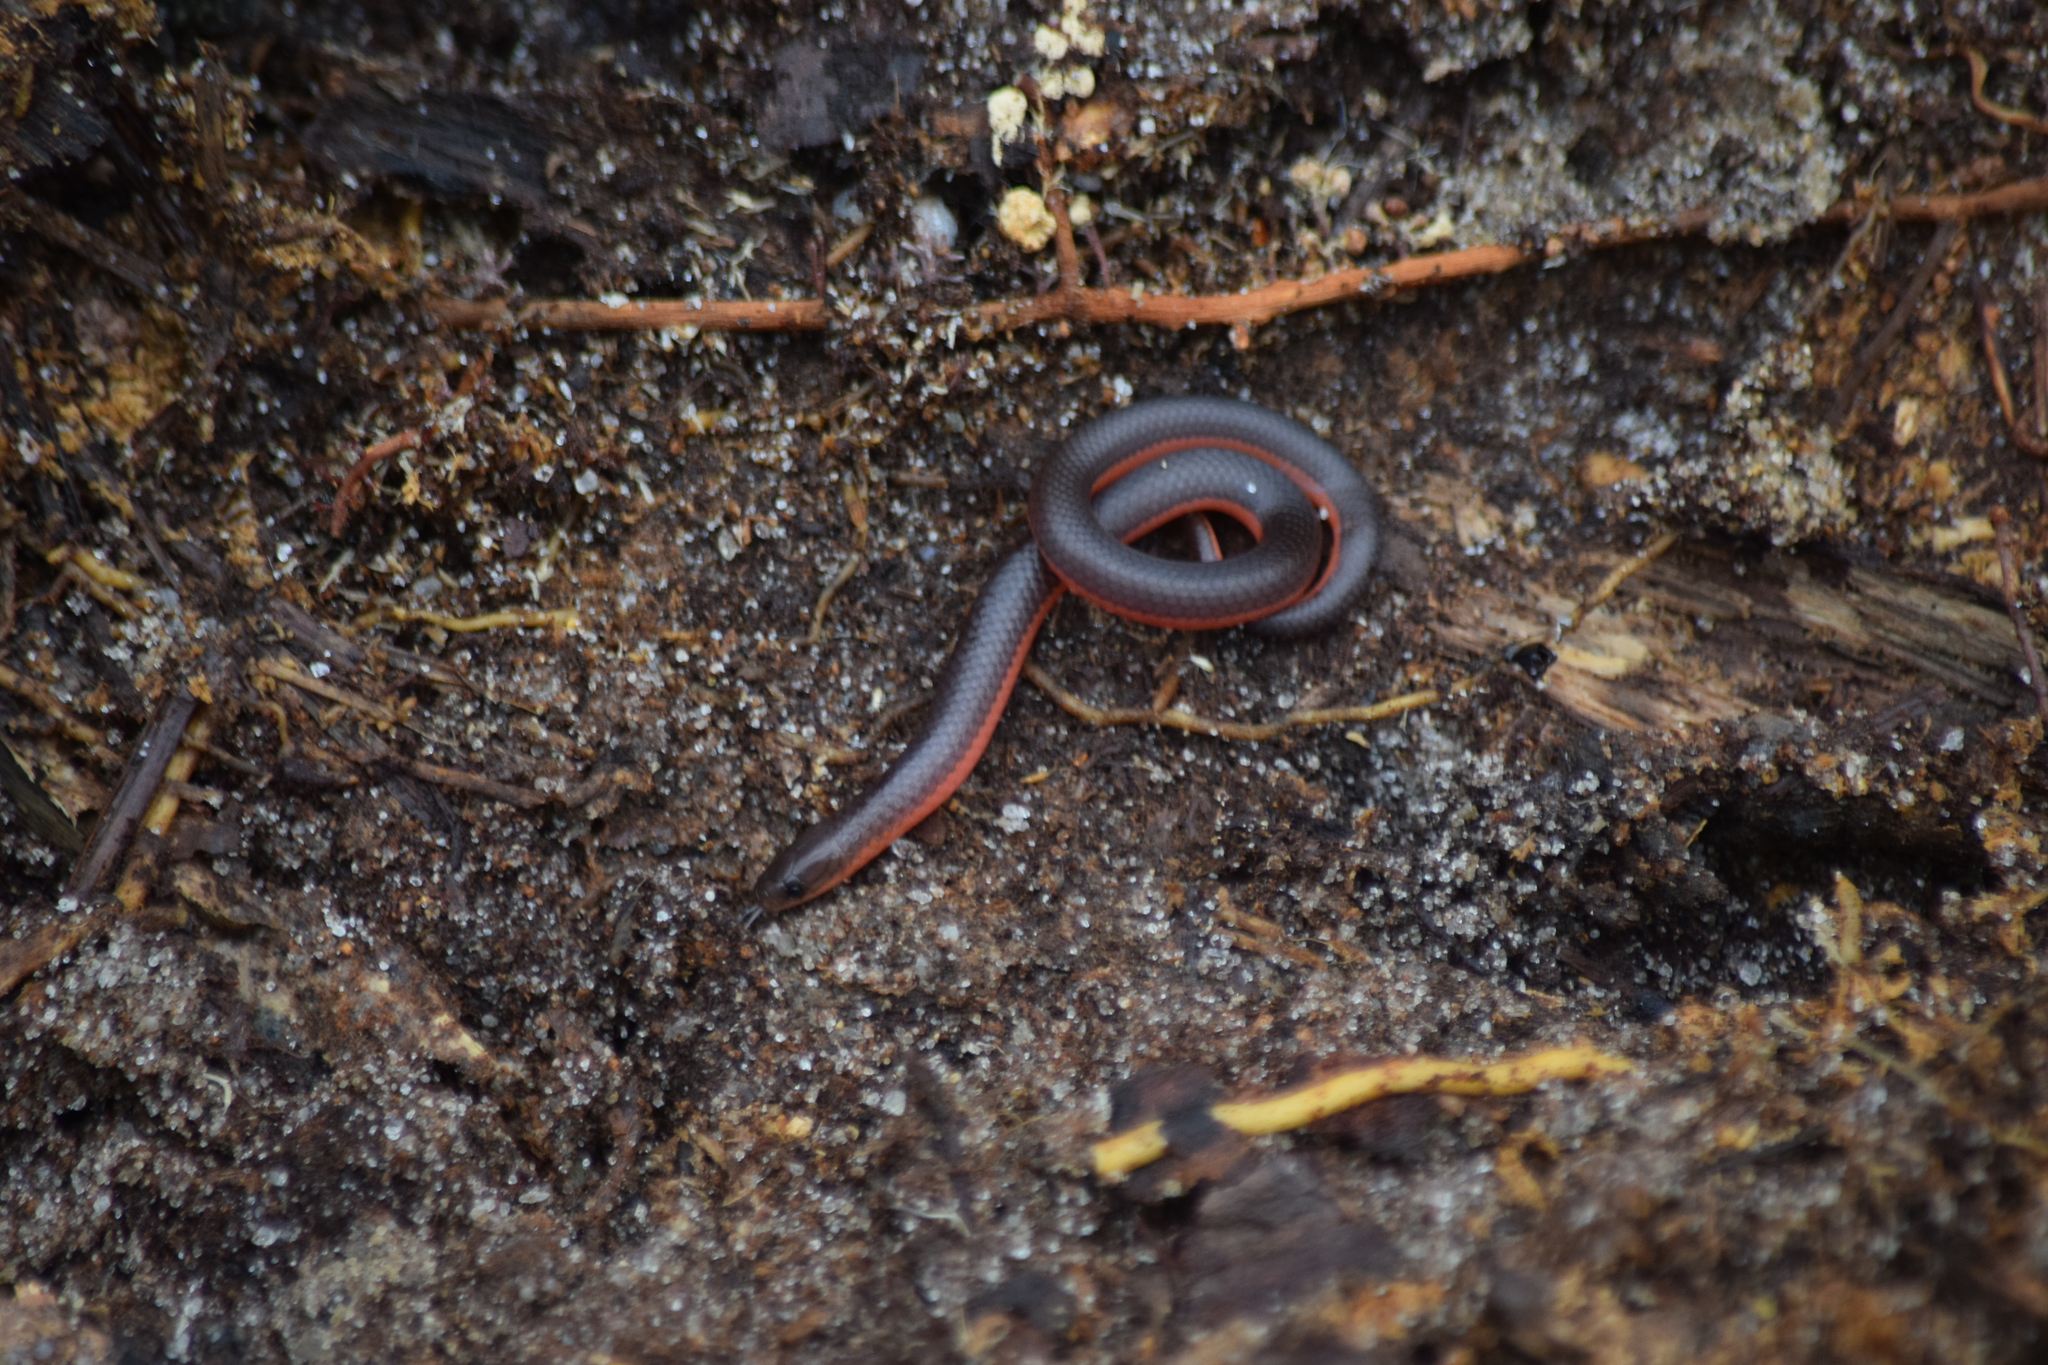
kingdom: Animalia
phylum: Chordata
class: Squamata
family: Colubridae
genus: Carphophis
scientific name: Carphophis amoenus
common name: Eastern worm snake
